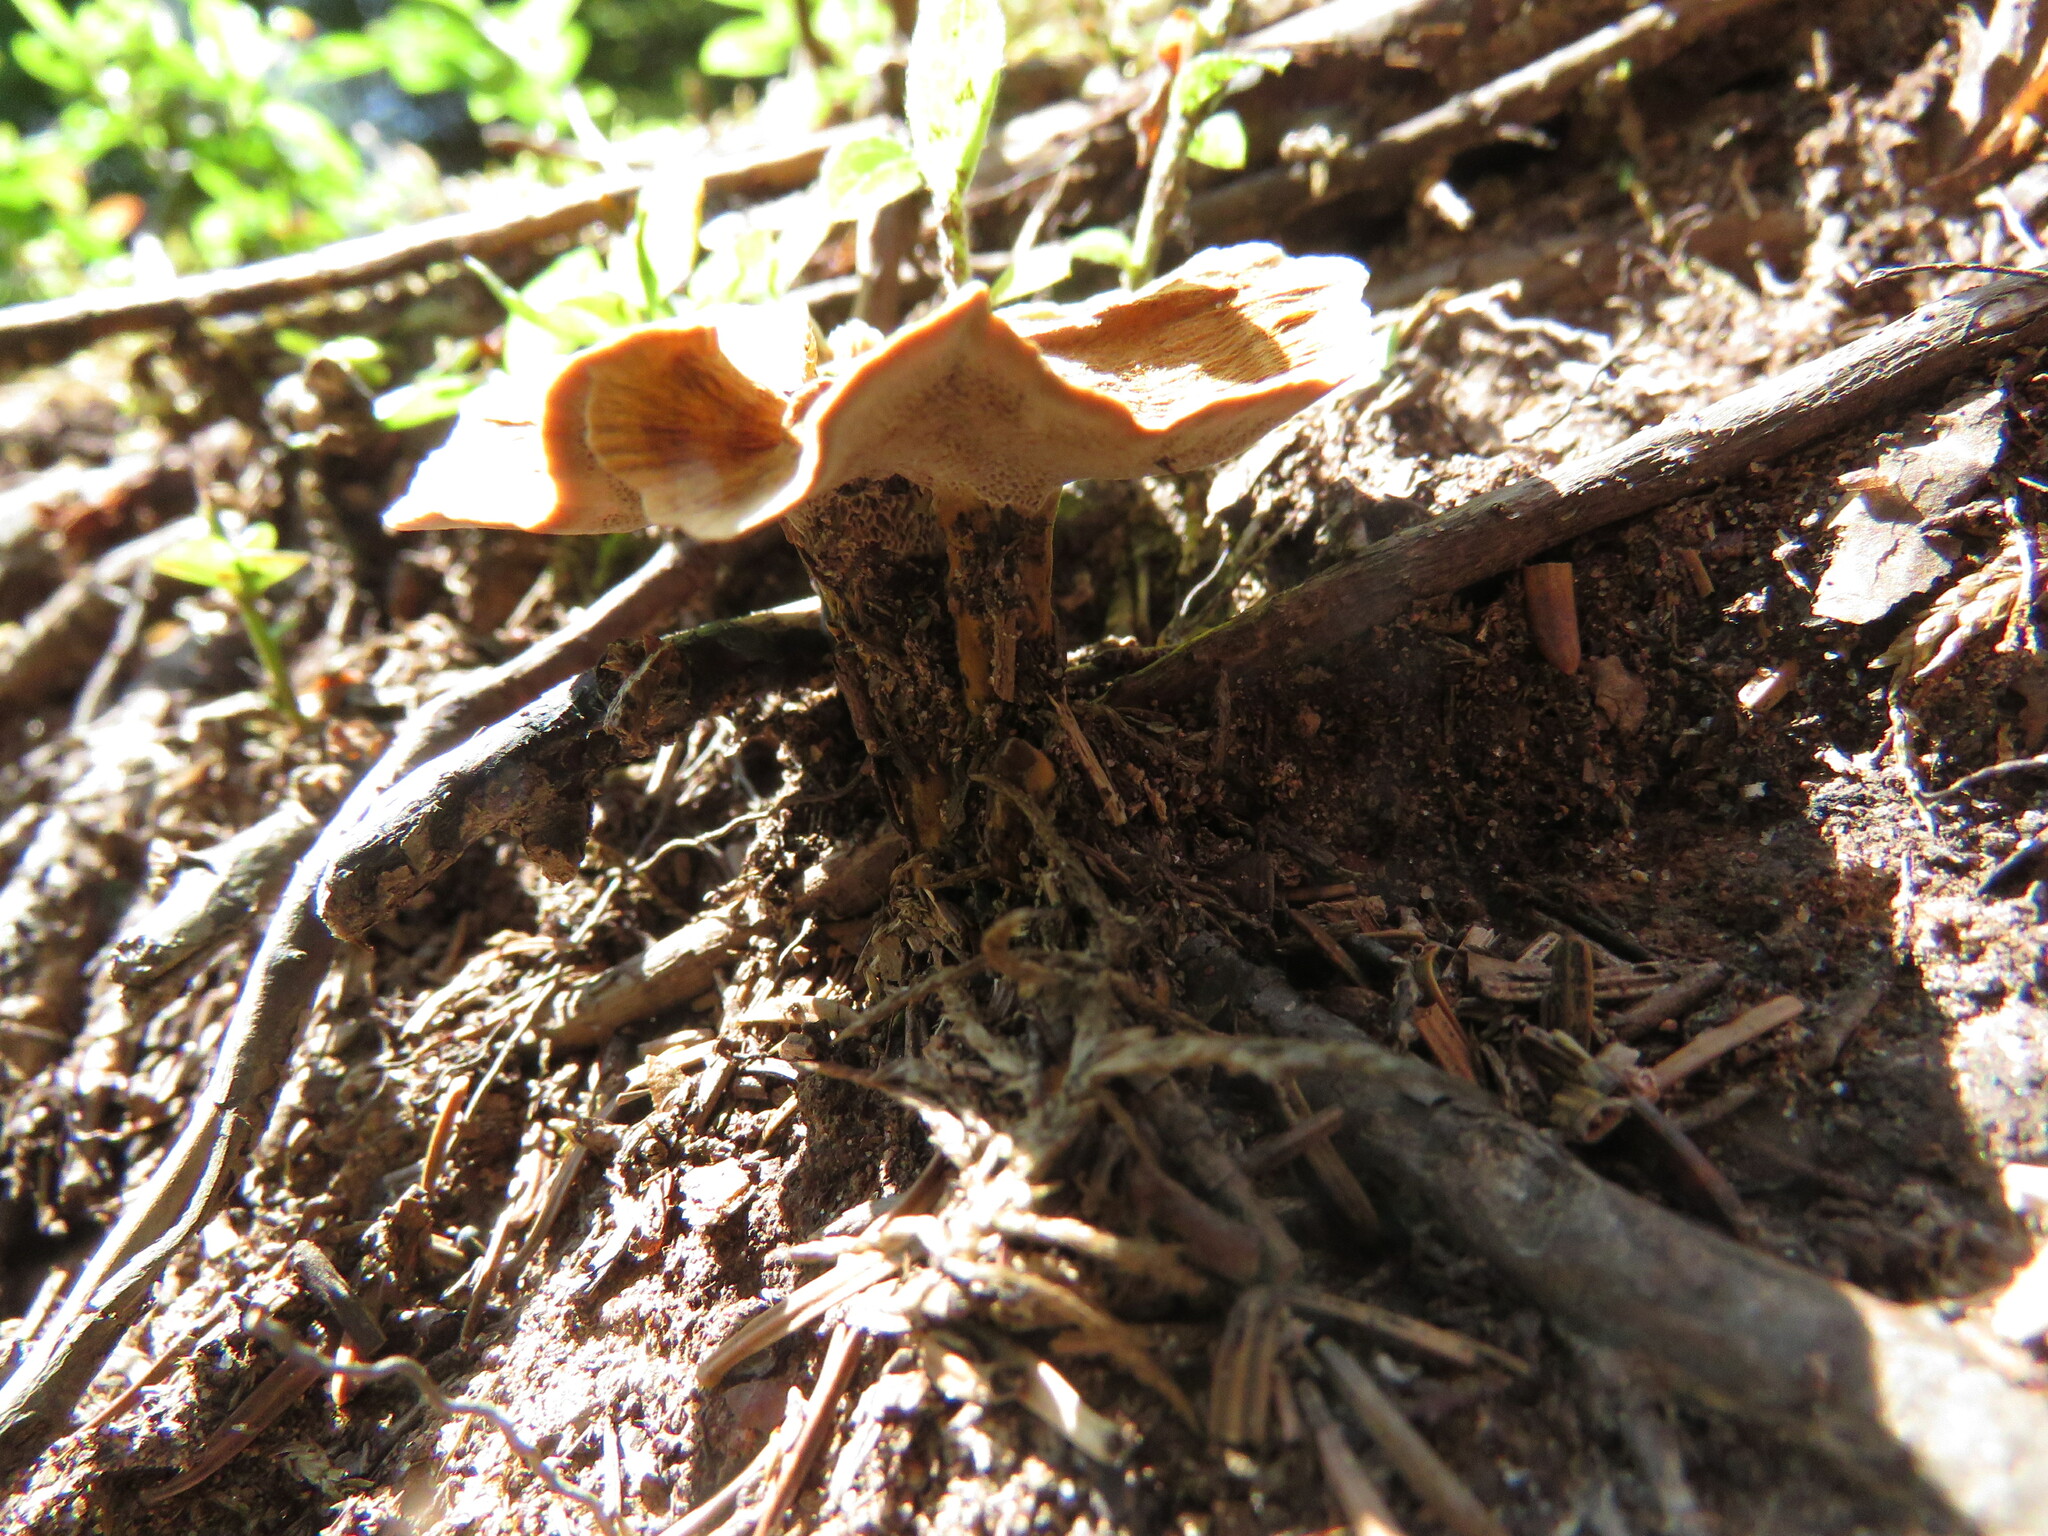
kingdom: Fungi
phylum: Basidiomycota
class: Agaricomycetes
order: Hymenochaetales
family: Hymenochaetaceae
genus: Onnia
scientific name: Onnia tomentosa
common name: Velvet rosette
